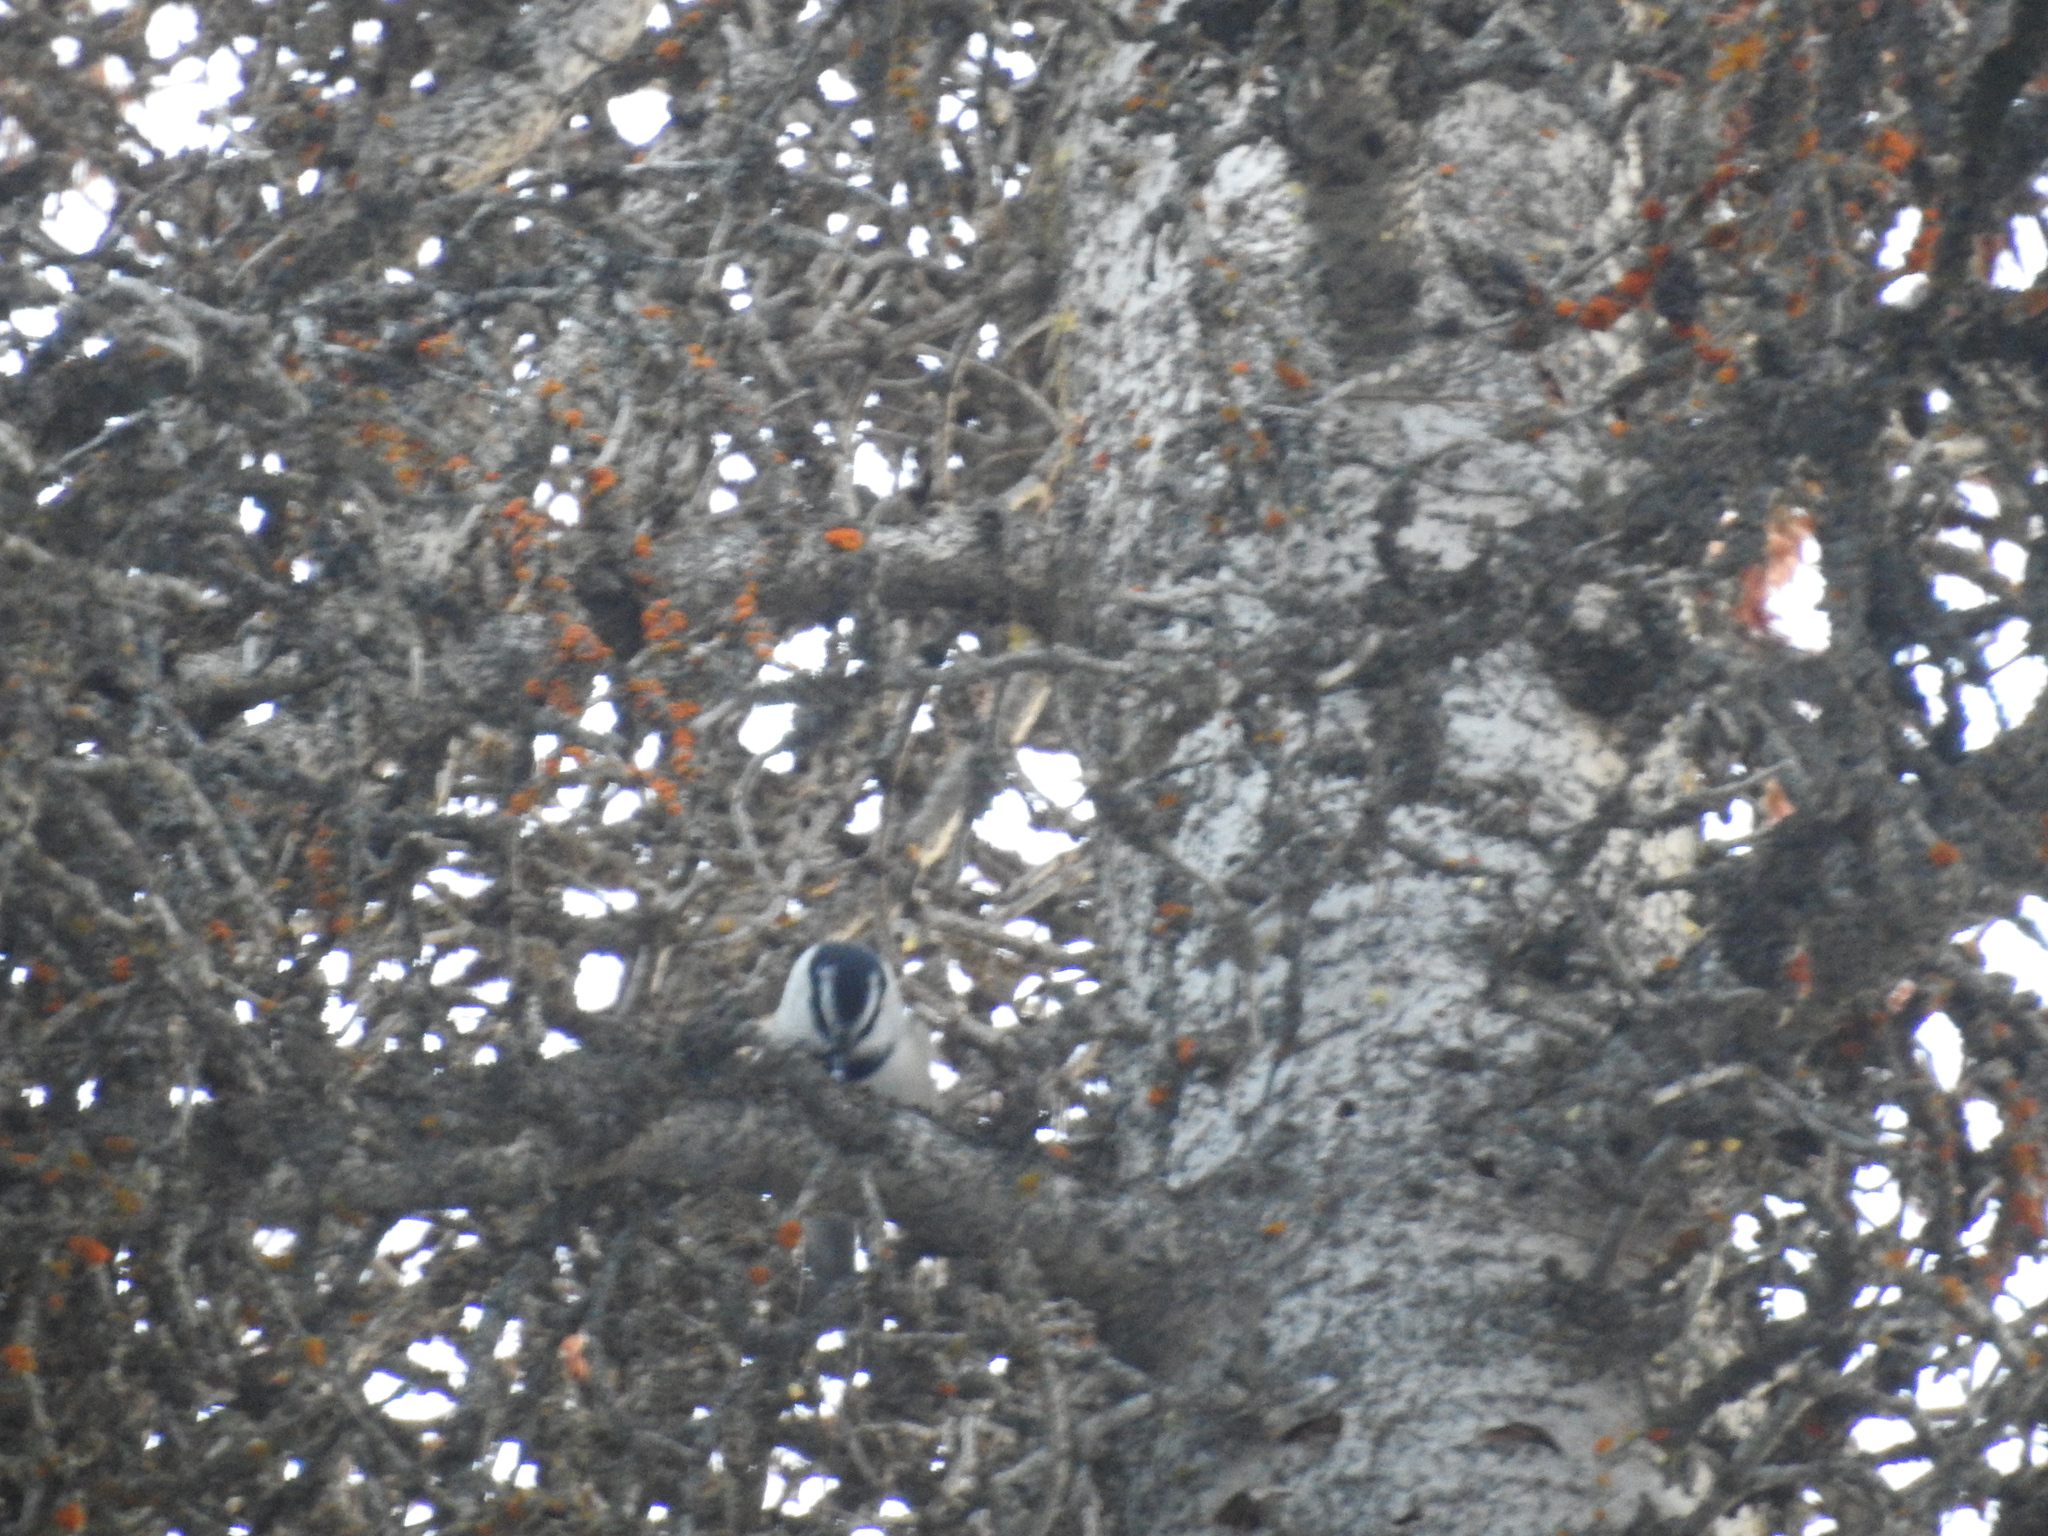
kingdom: Animalia
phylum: Chordata
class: Aves
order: Passeriformes
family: Paridae
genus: Poecile
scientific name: Poecile gambeli
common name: Mountain chickadee
